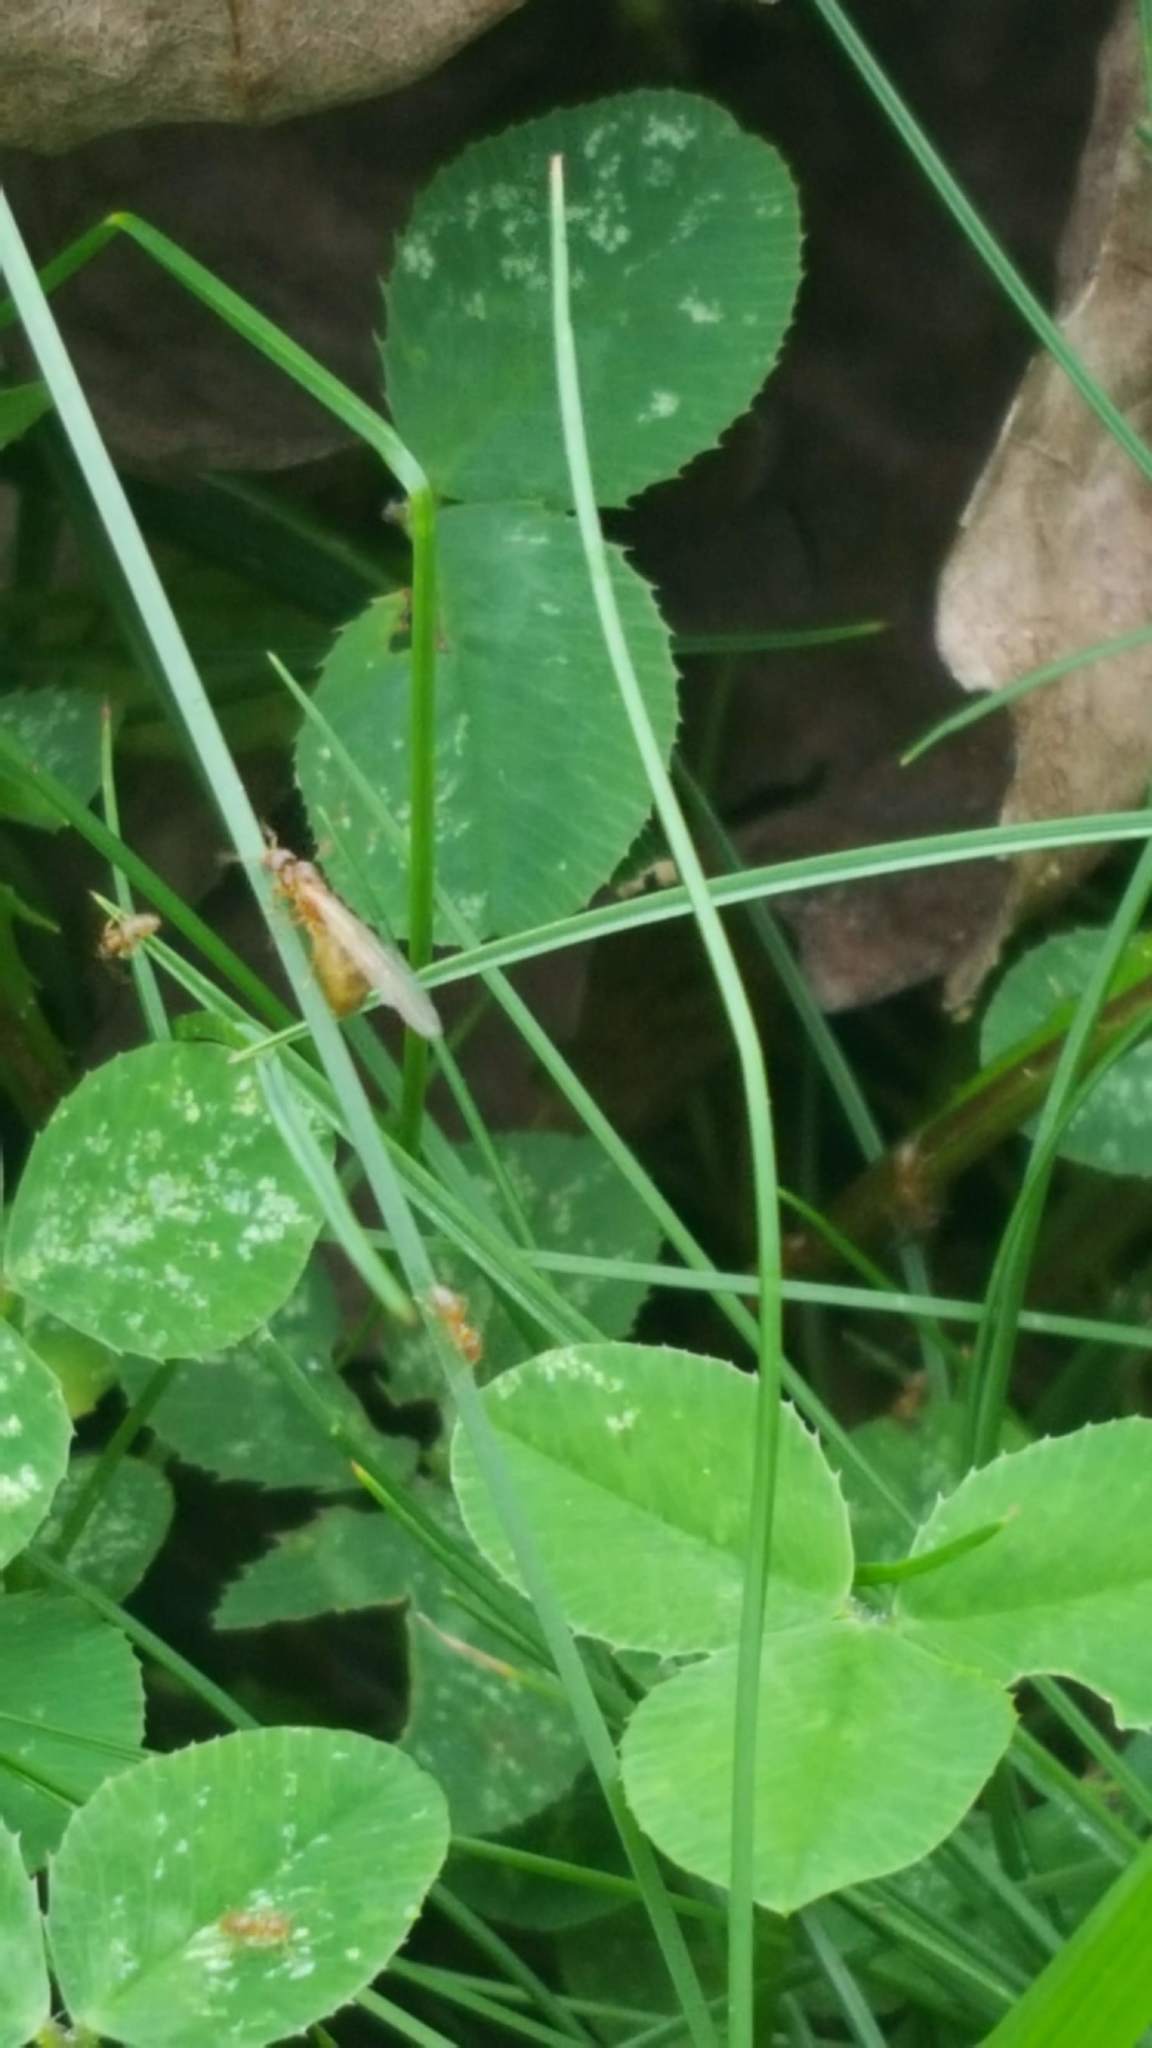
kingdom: Animalia
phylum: Arthropoda
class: Insecta
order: Hymenoptera
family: Formicidae
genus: Brachymyrmex
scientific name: Brachymyrmex depilis
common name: Hairless rover ant
